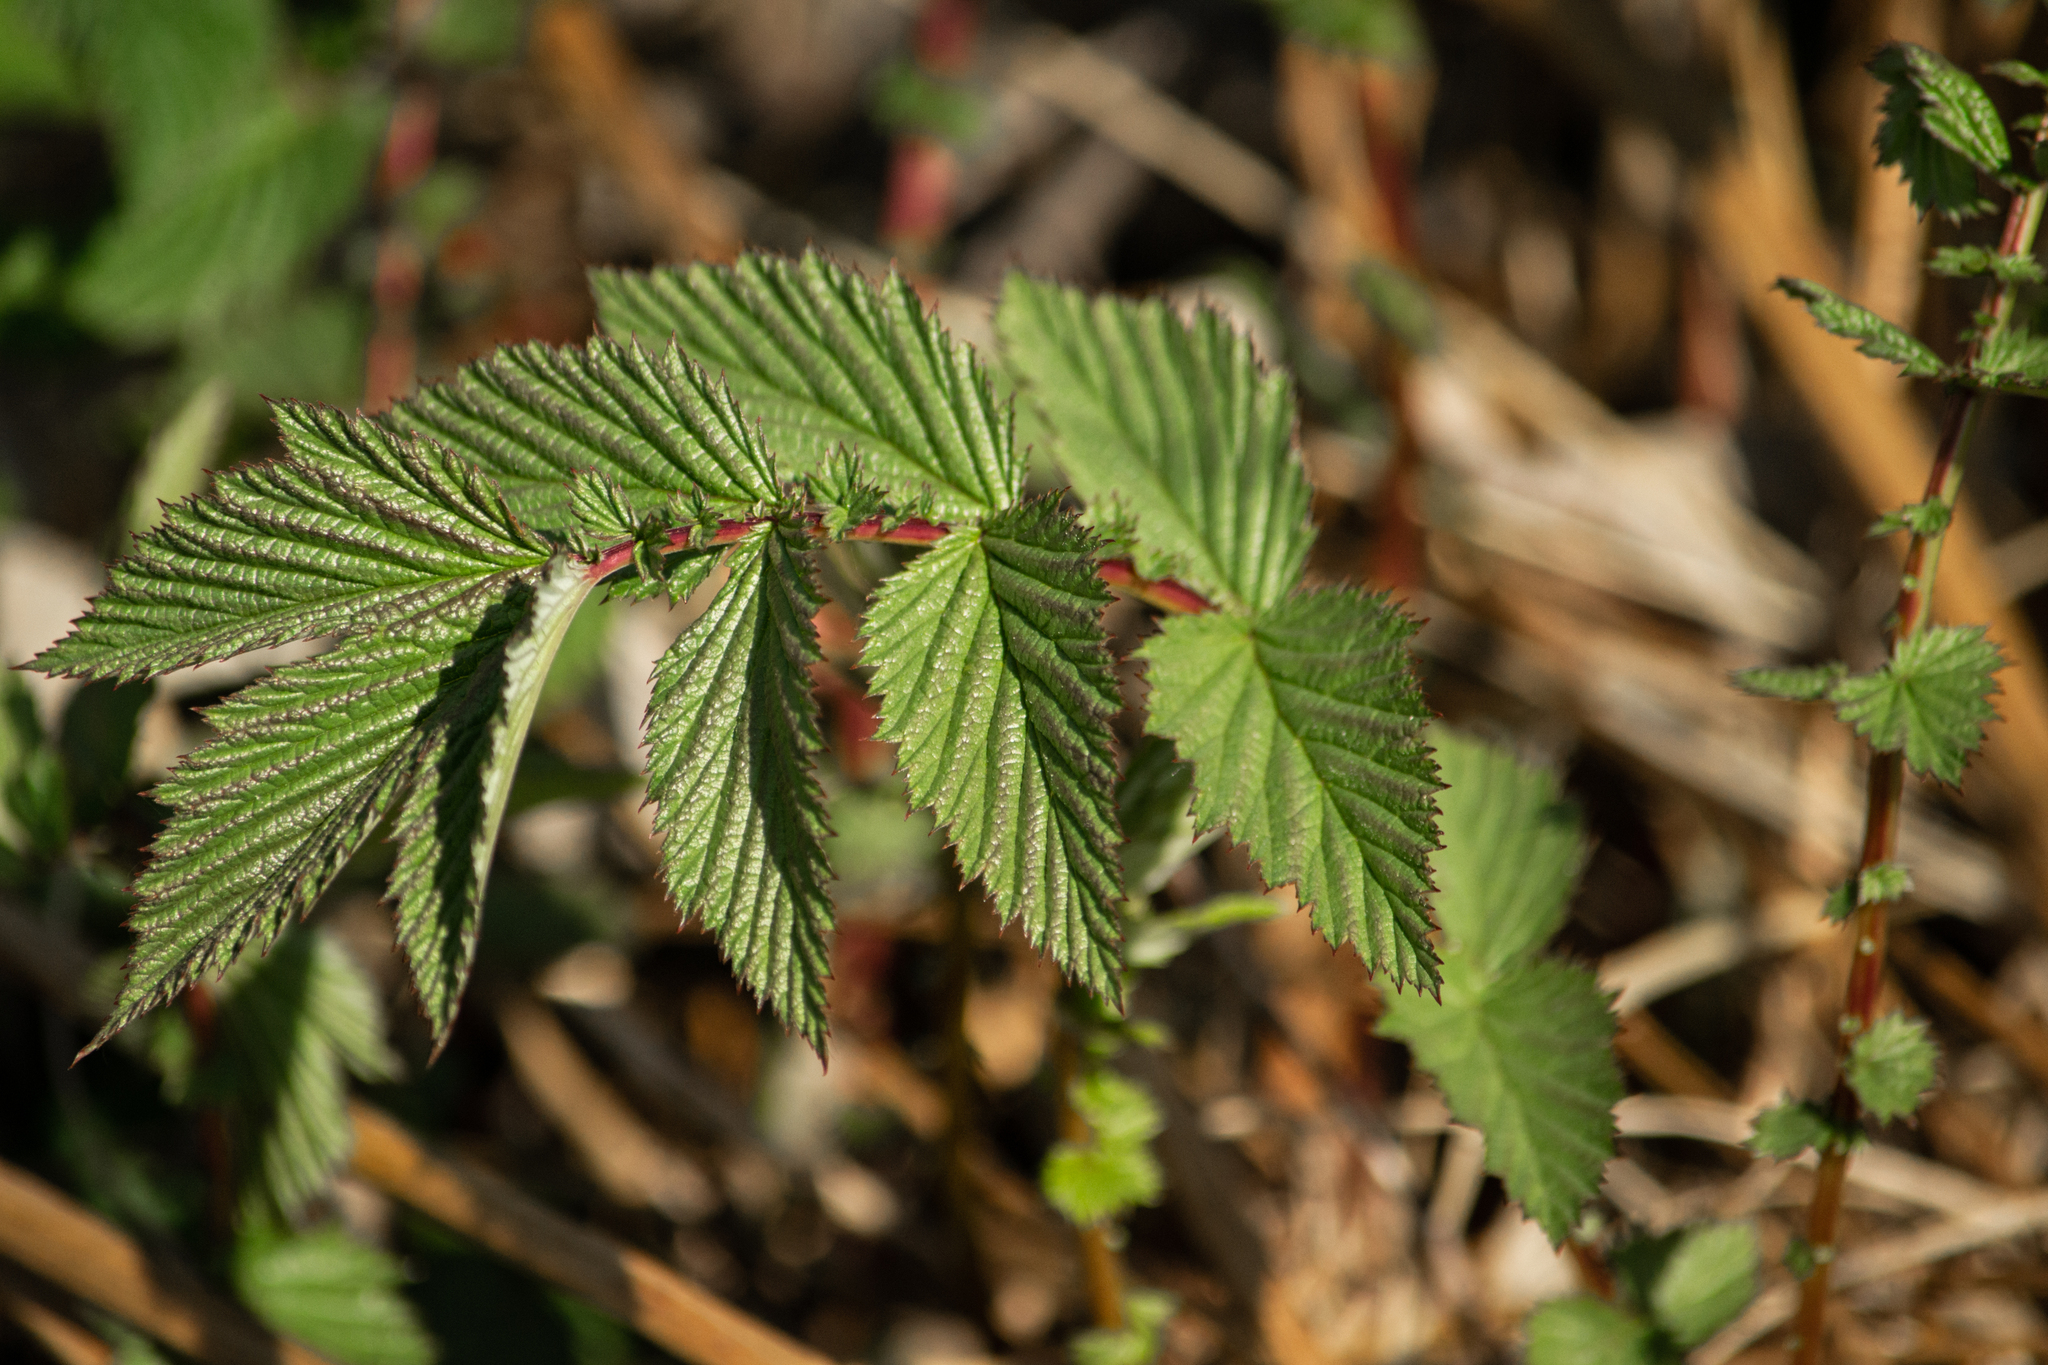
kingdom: Plantae
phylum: Tracheophyta
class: Magnoliopsida
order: Rosales
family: Rosaceae
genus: Filipendula
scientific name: Filipendula ulmaria
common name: Meadowsweet
